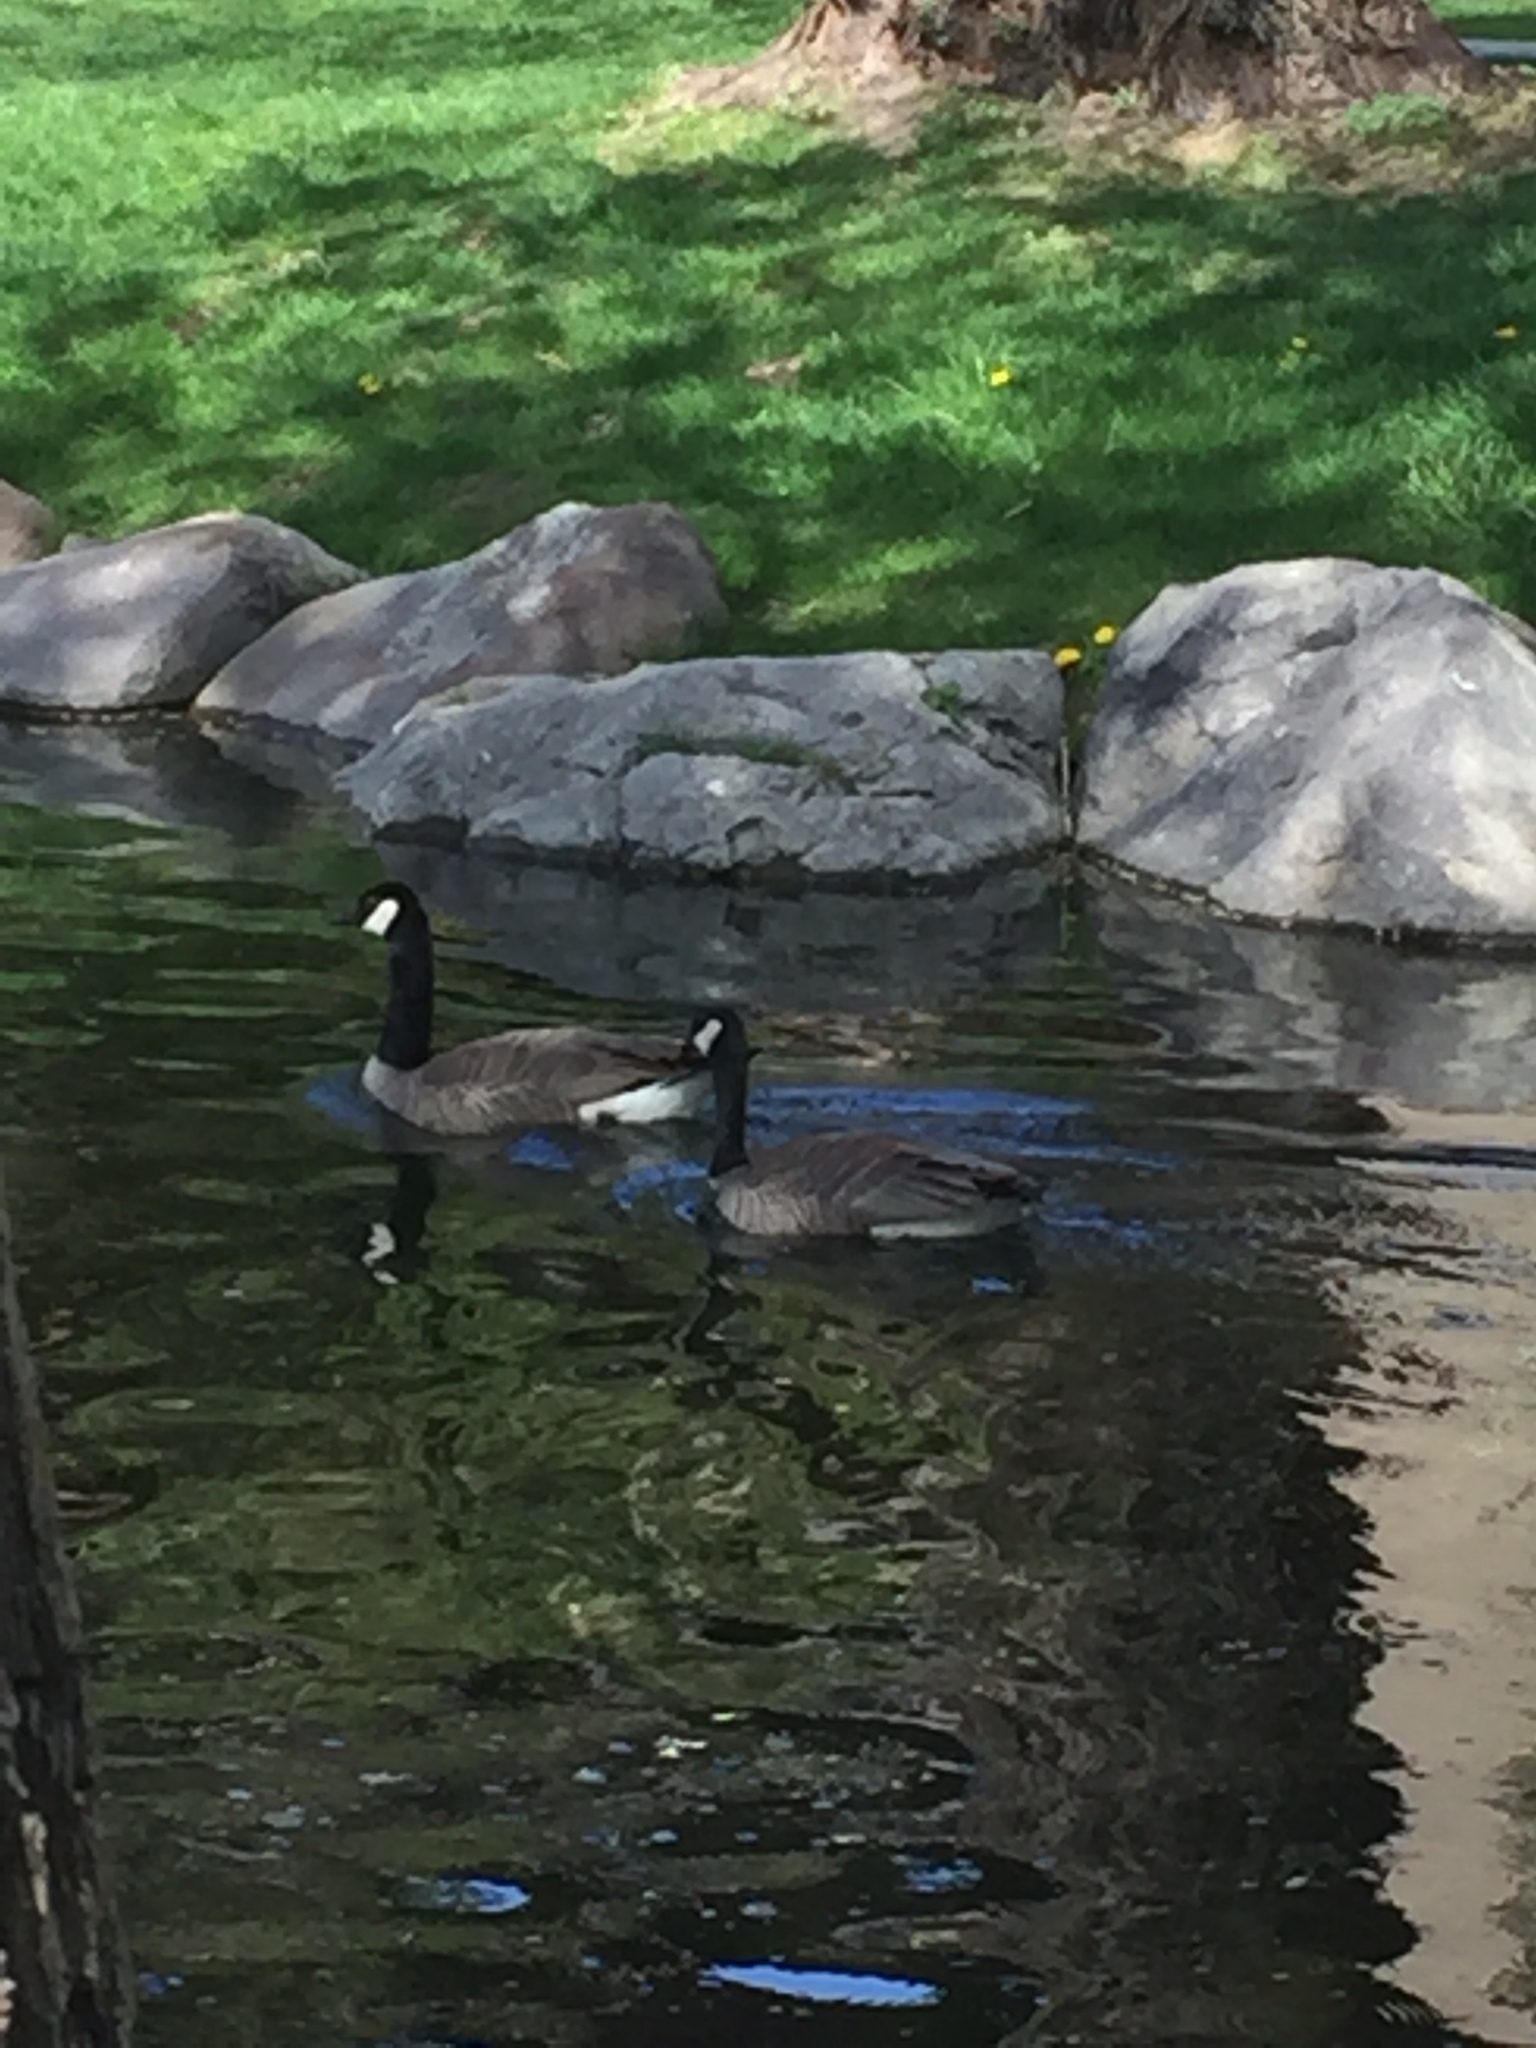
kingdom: Animalia
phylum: Chordata
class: Aves
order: Anseriformes
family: Anatidae
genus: Branta
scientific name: Branta canadensis
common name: Canada goose
